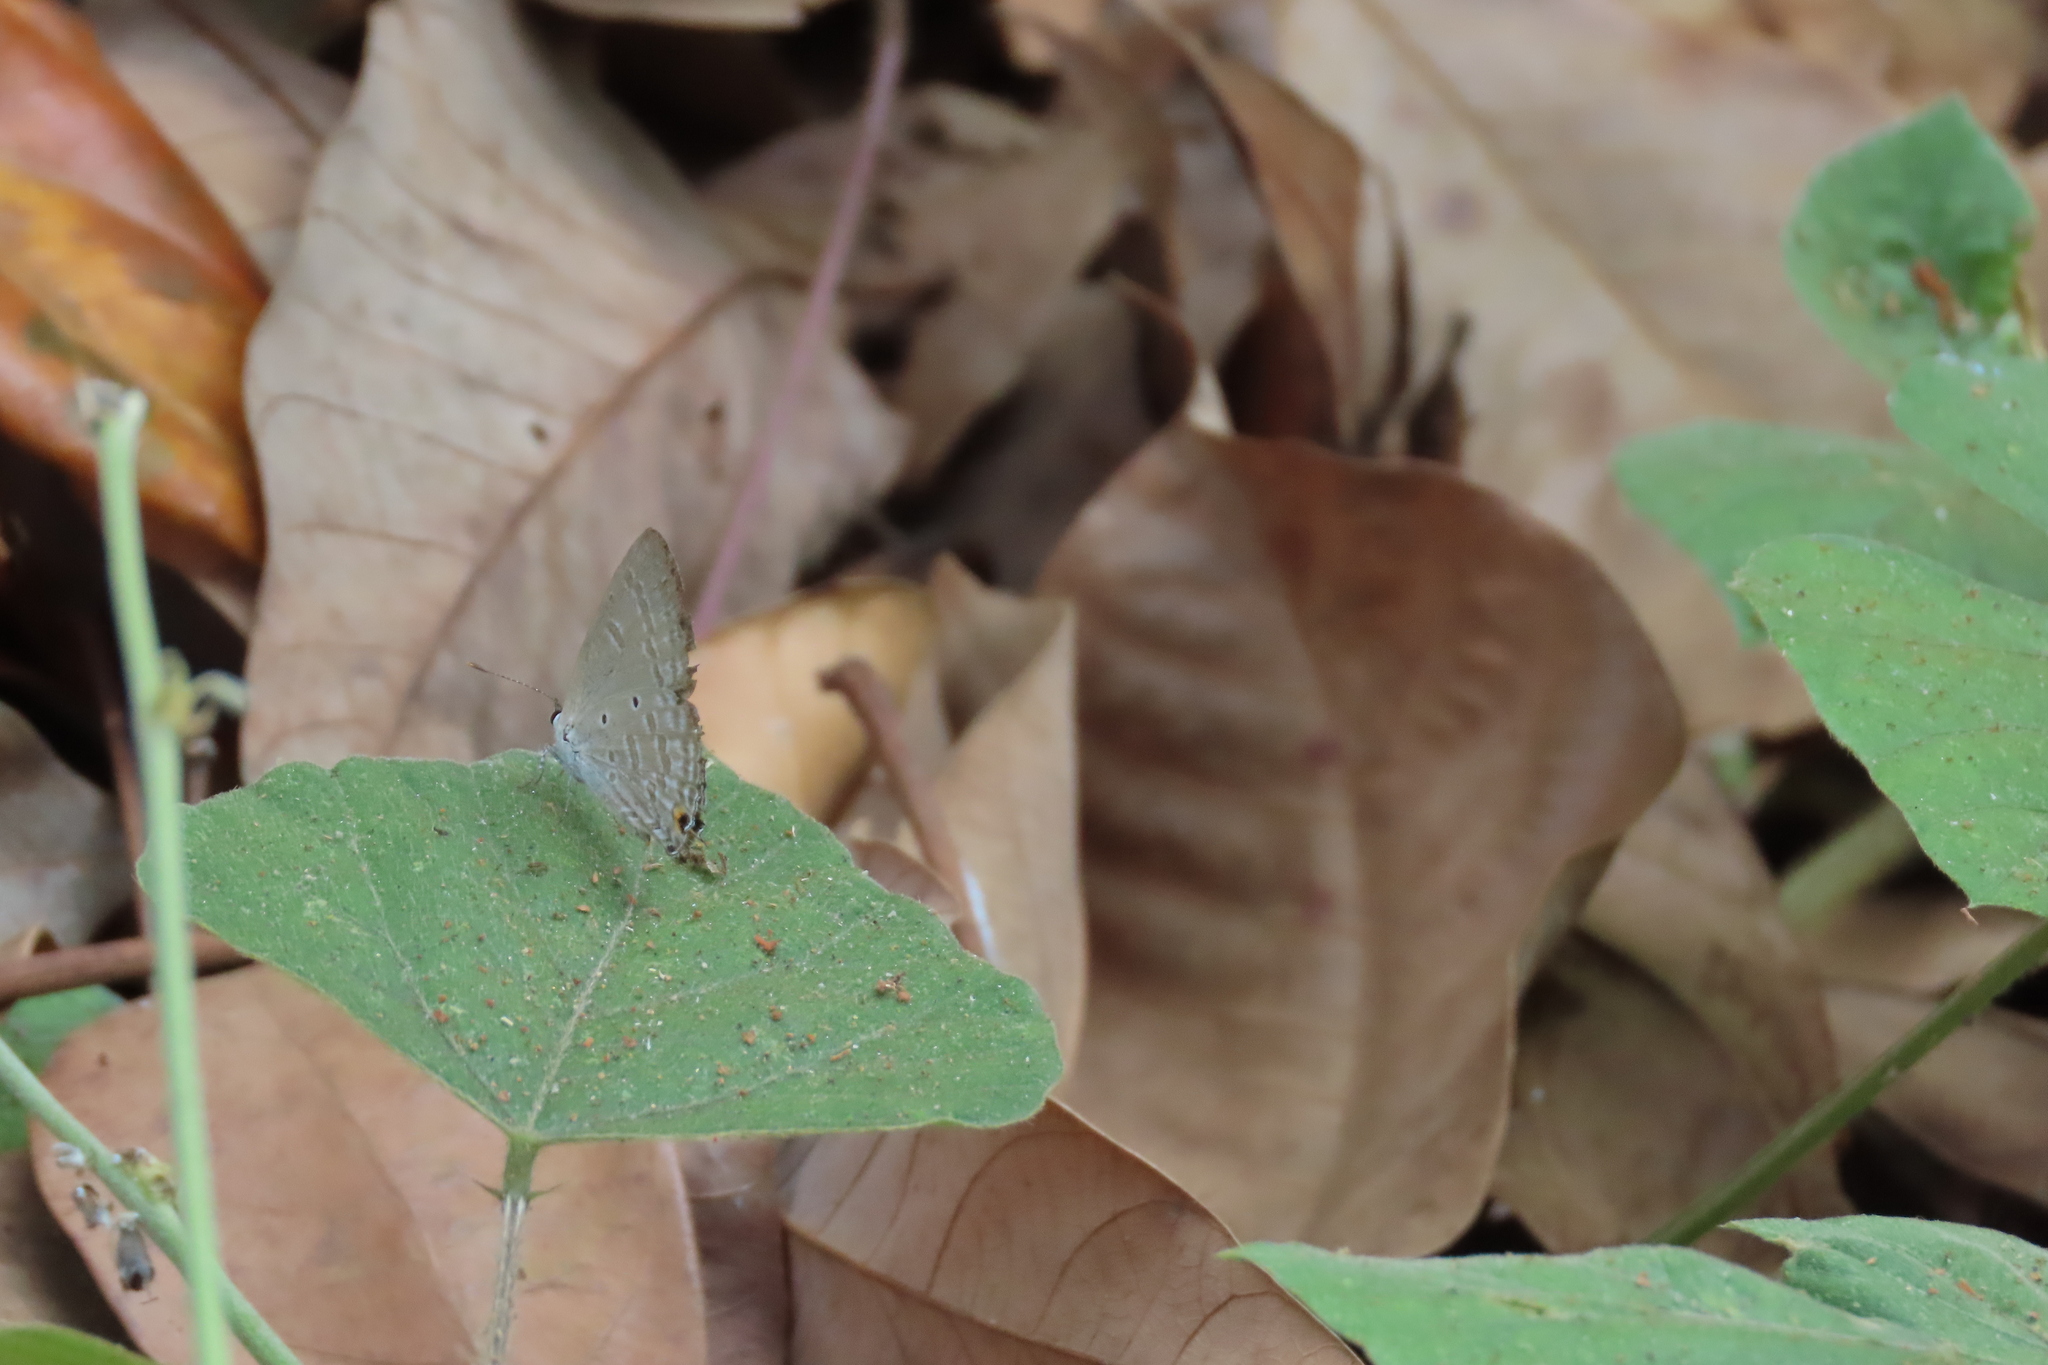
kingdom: Animalia
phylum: Arthropoda
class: Insecta
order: Lepidoptera
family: Lycaenidae
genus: Catochrysops
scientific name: Catochrysops strabo
